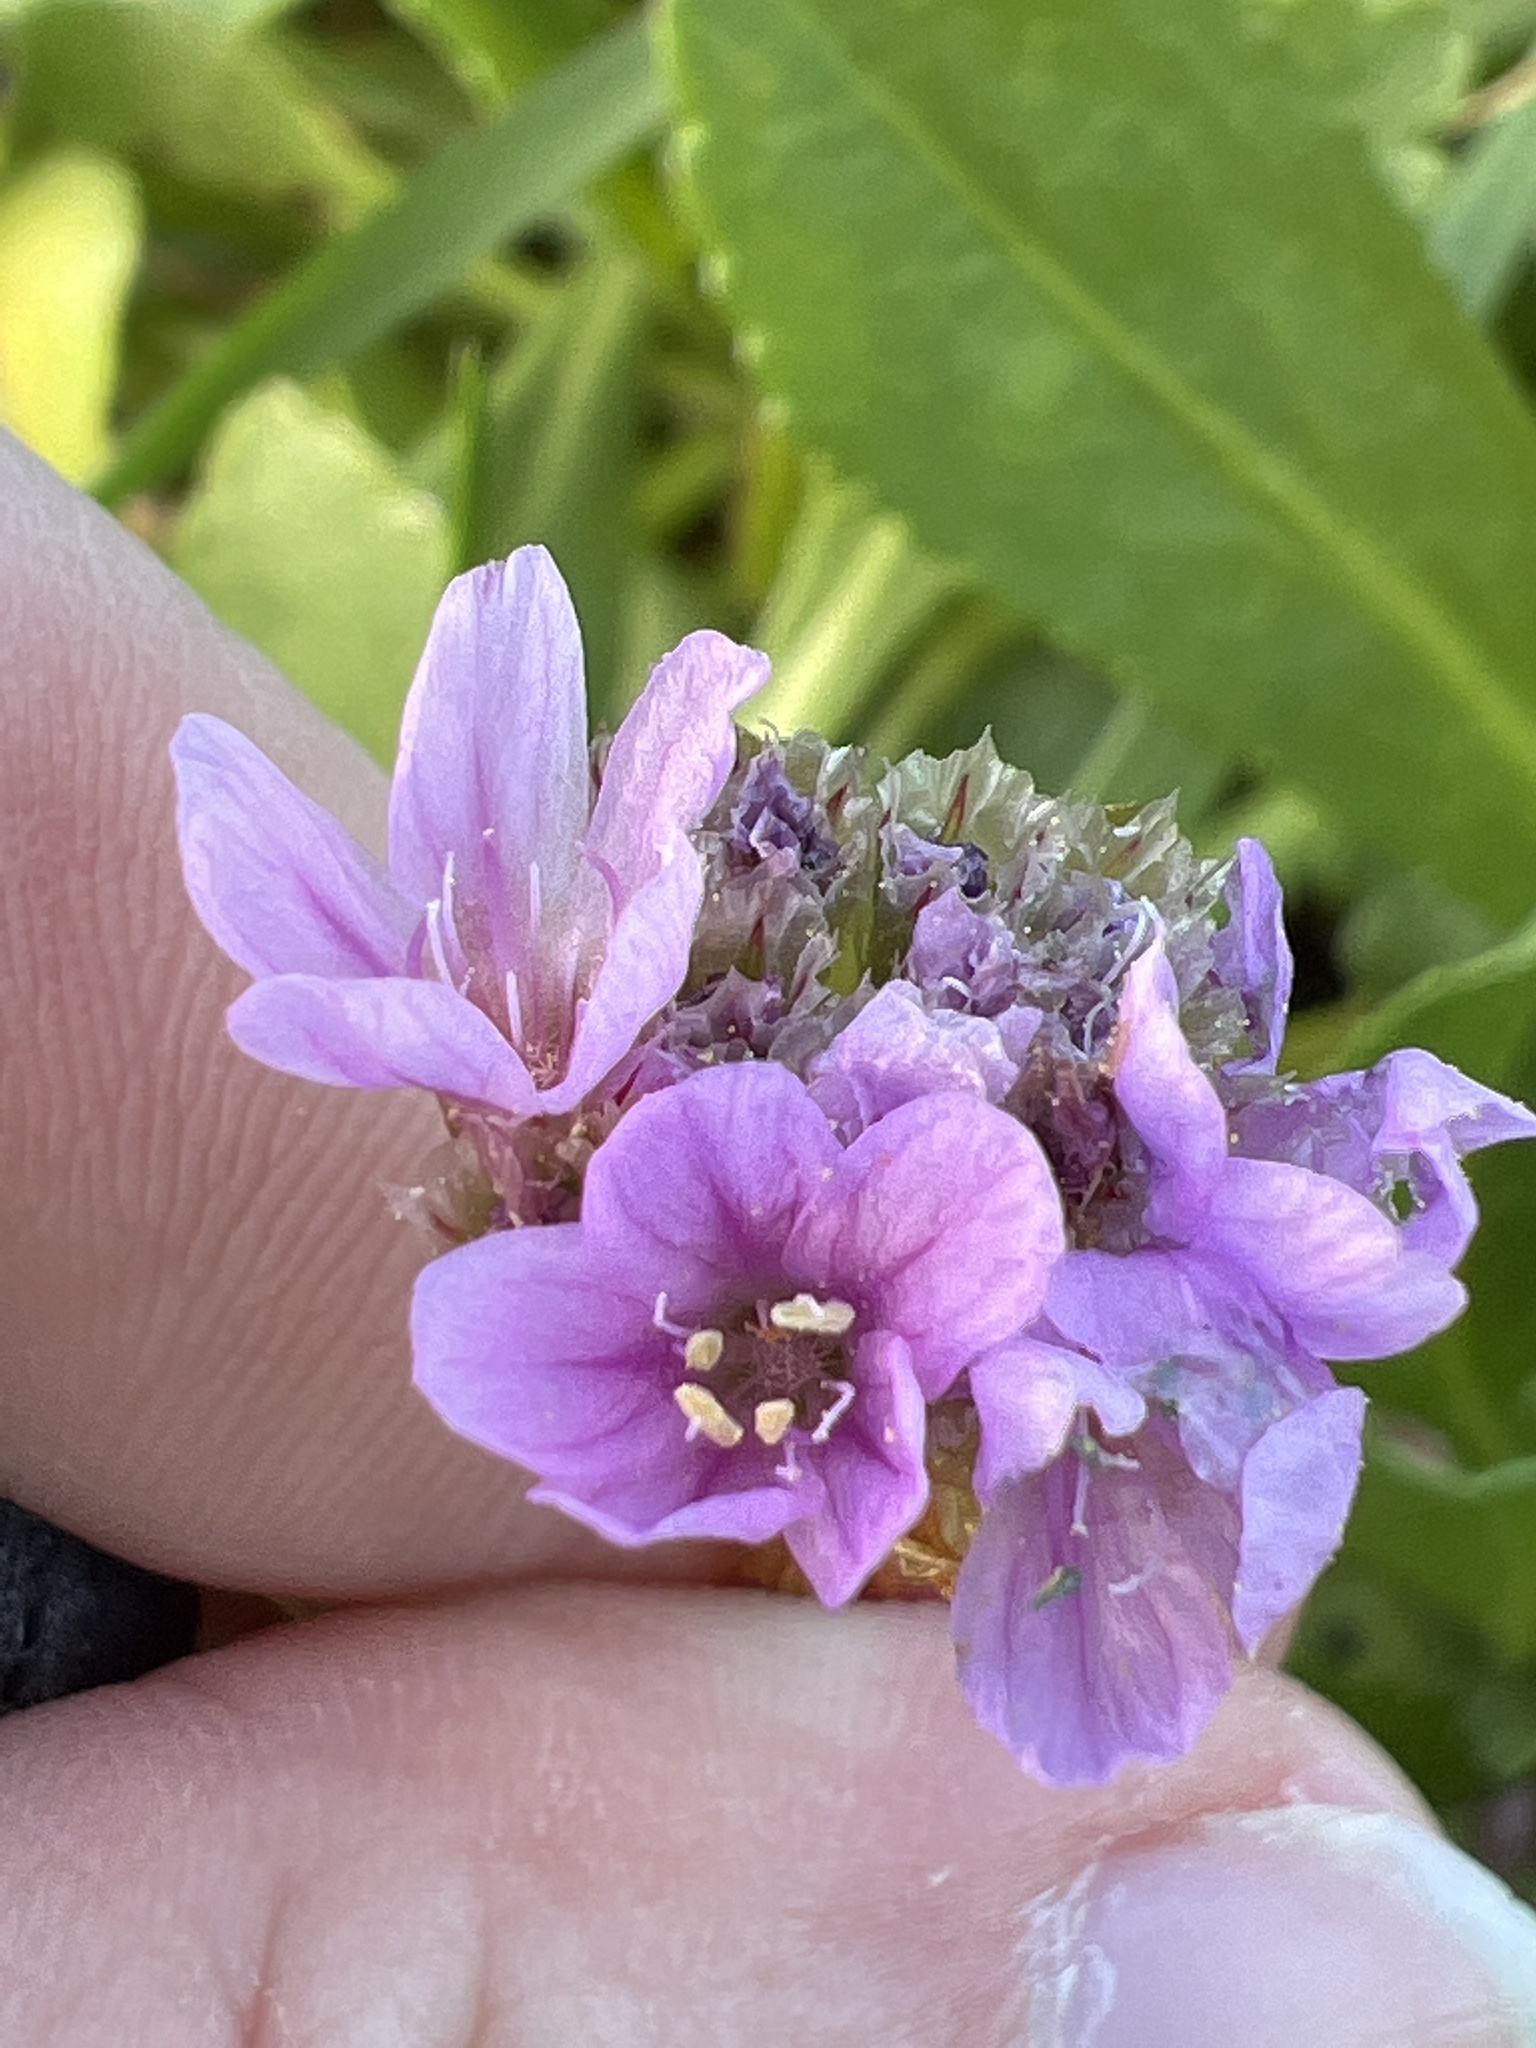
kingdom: Plantae
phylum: Tracheophyta
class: Magnoliopsida
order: Caryophyllales
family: Plumbaginaceae
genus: Armeria
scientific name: Armeria maritima
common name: Thrift
